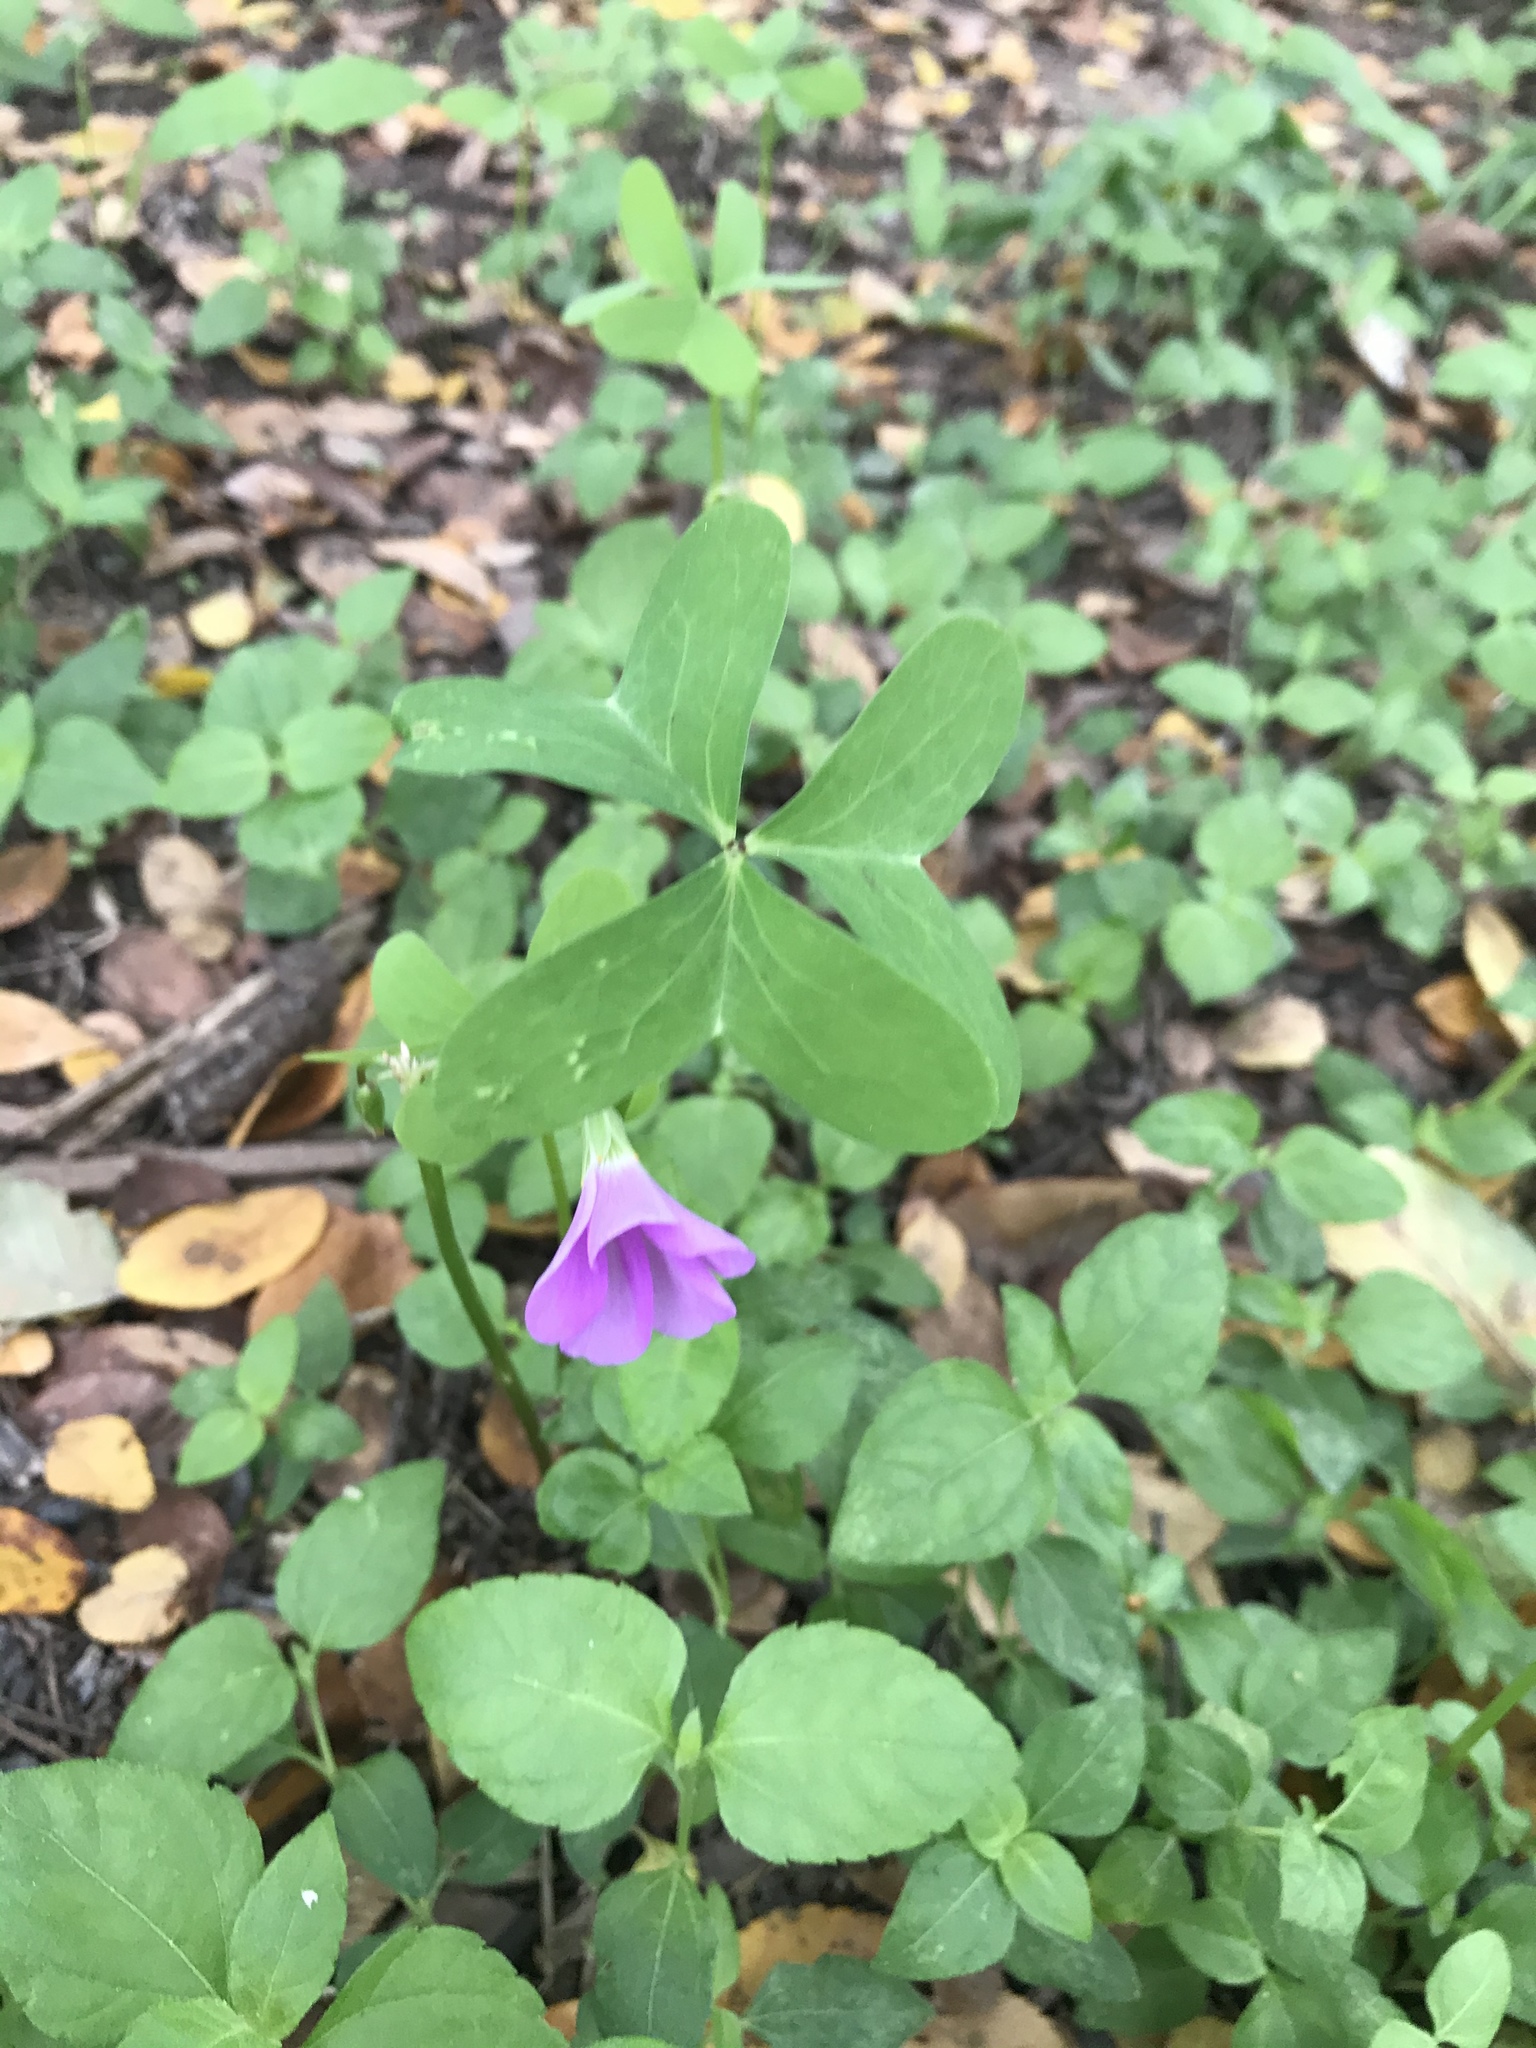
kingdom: Plantae
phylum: Tracheophyta
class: Magnoliopsida
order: Oxalidales
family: Oxalidaceae
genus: Oxalis
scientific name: Oxalis drummondii
